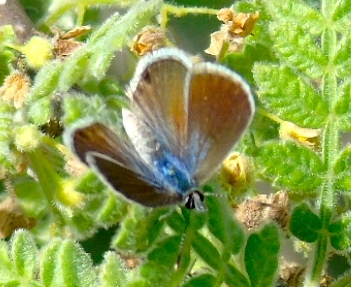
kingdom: Animalia
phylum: Arthropoda
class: Insecta
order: Lepidoptera
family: Lycaenidae
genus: Brephidium
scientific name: Brephidium
